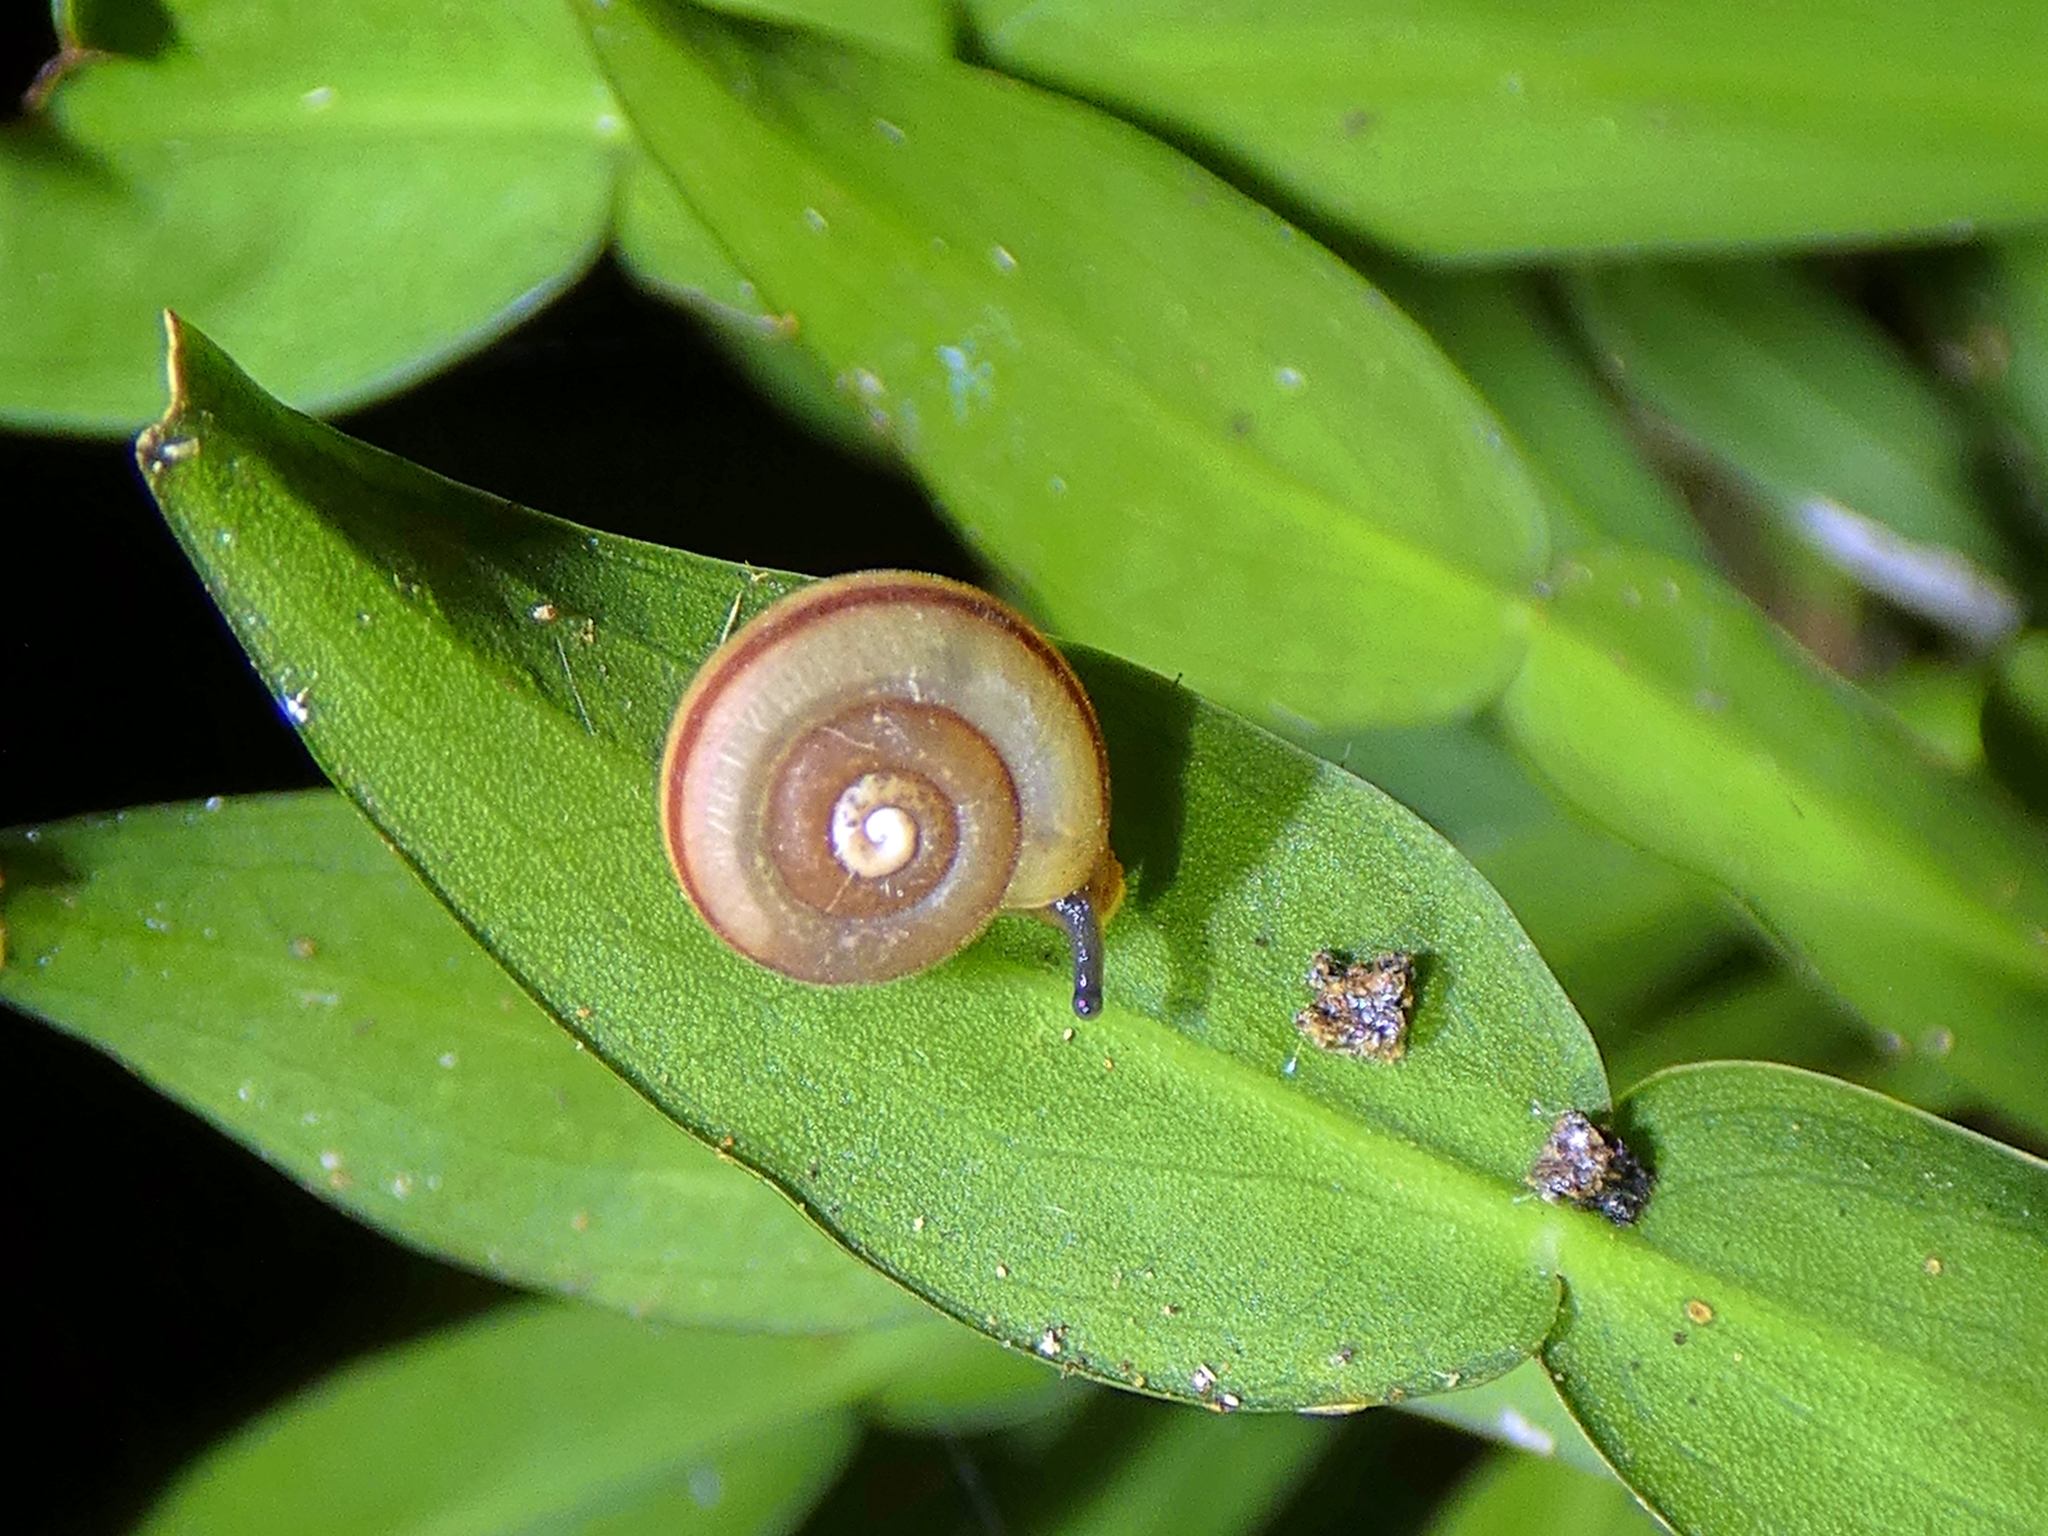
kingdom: Animalia
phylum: Mollusca
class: Gastropoda
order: Stylommatophora
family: Camaenidae
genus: Protolinitis
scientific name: Protolinitis terriirwinae
